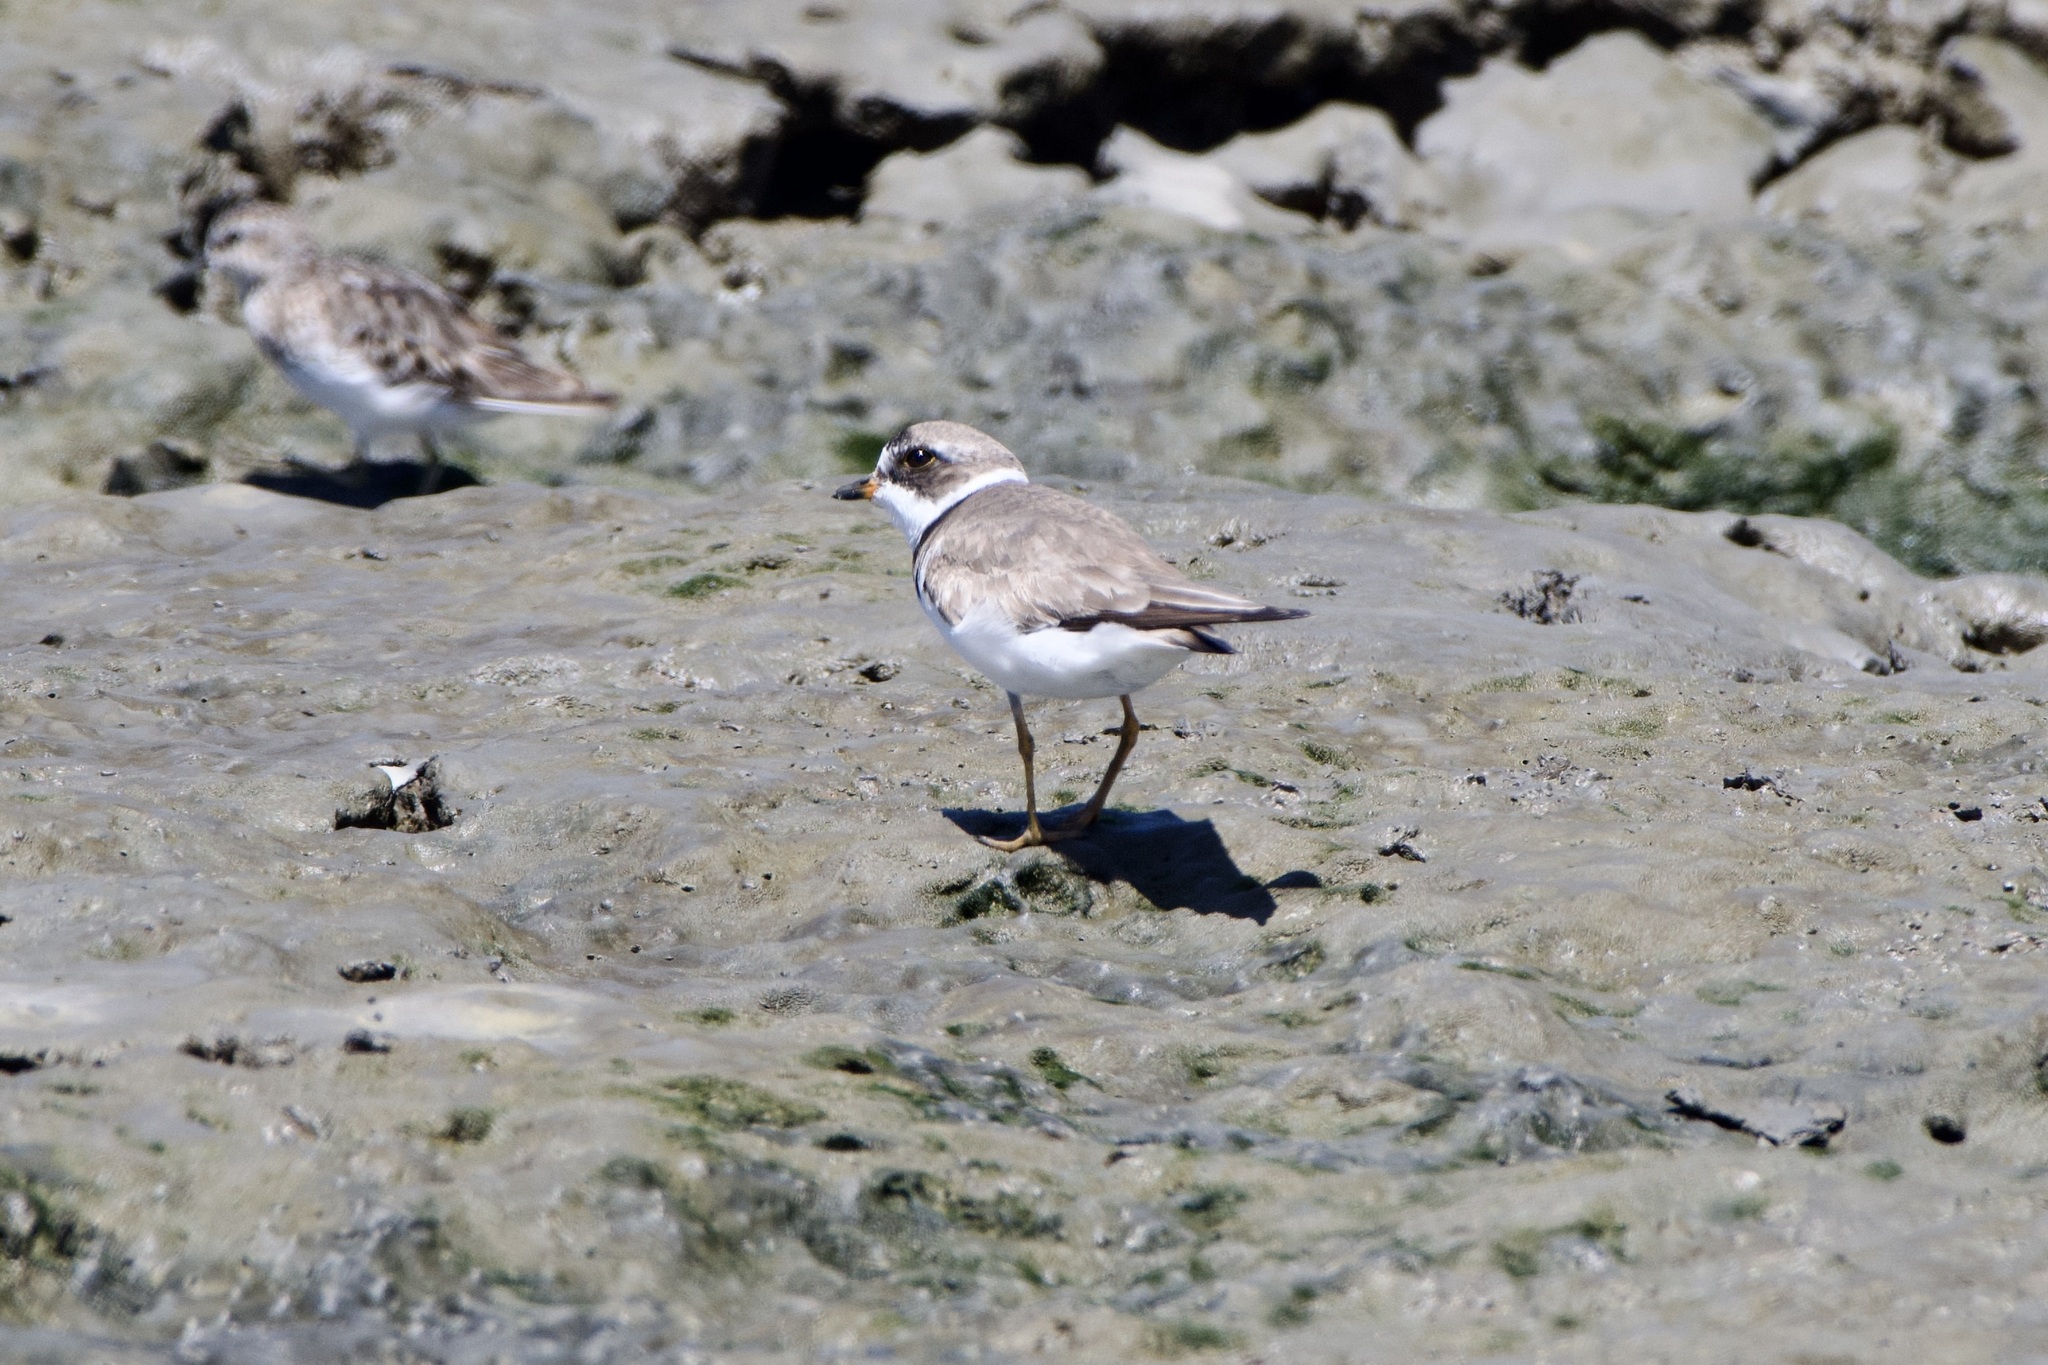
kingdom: Animalia
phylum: Chordata
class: Aves
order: Charadriiformes
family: Charadriidae
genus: Charadrius
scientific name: Charadrius semipalmatus
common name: Semipalmated plover
